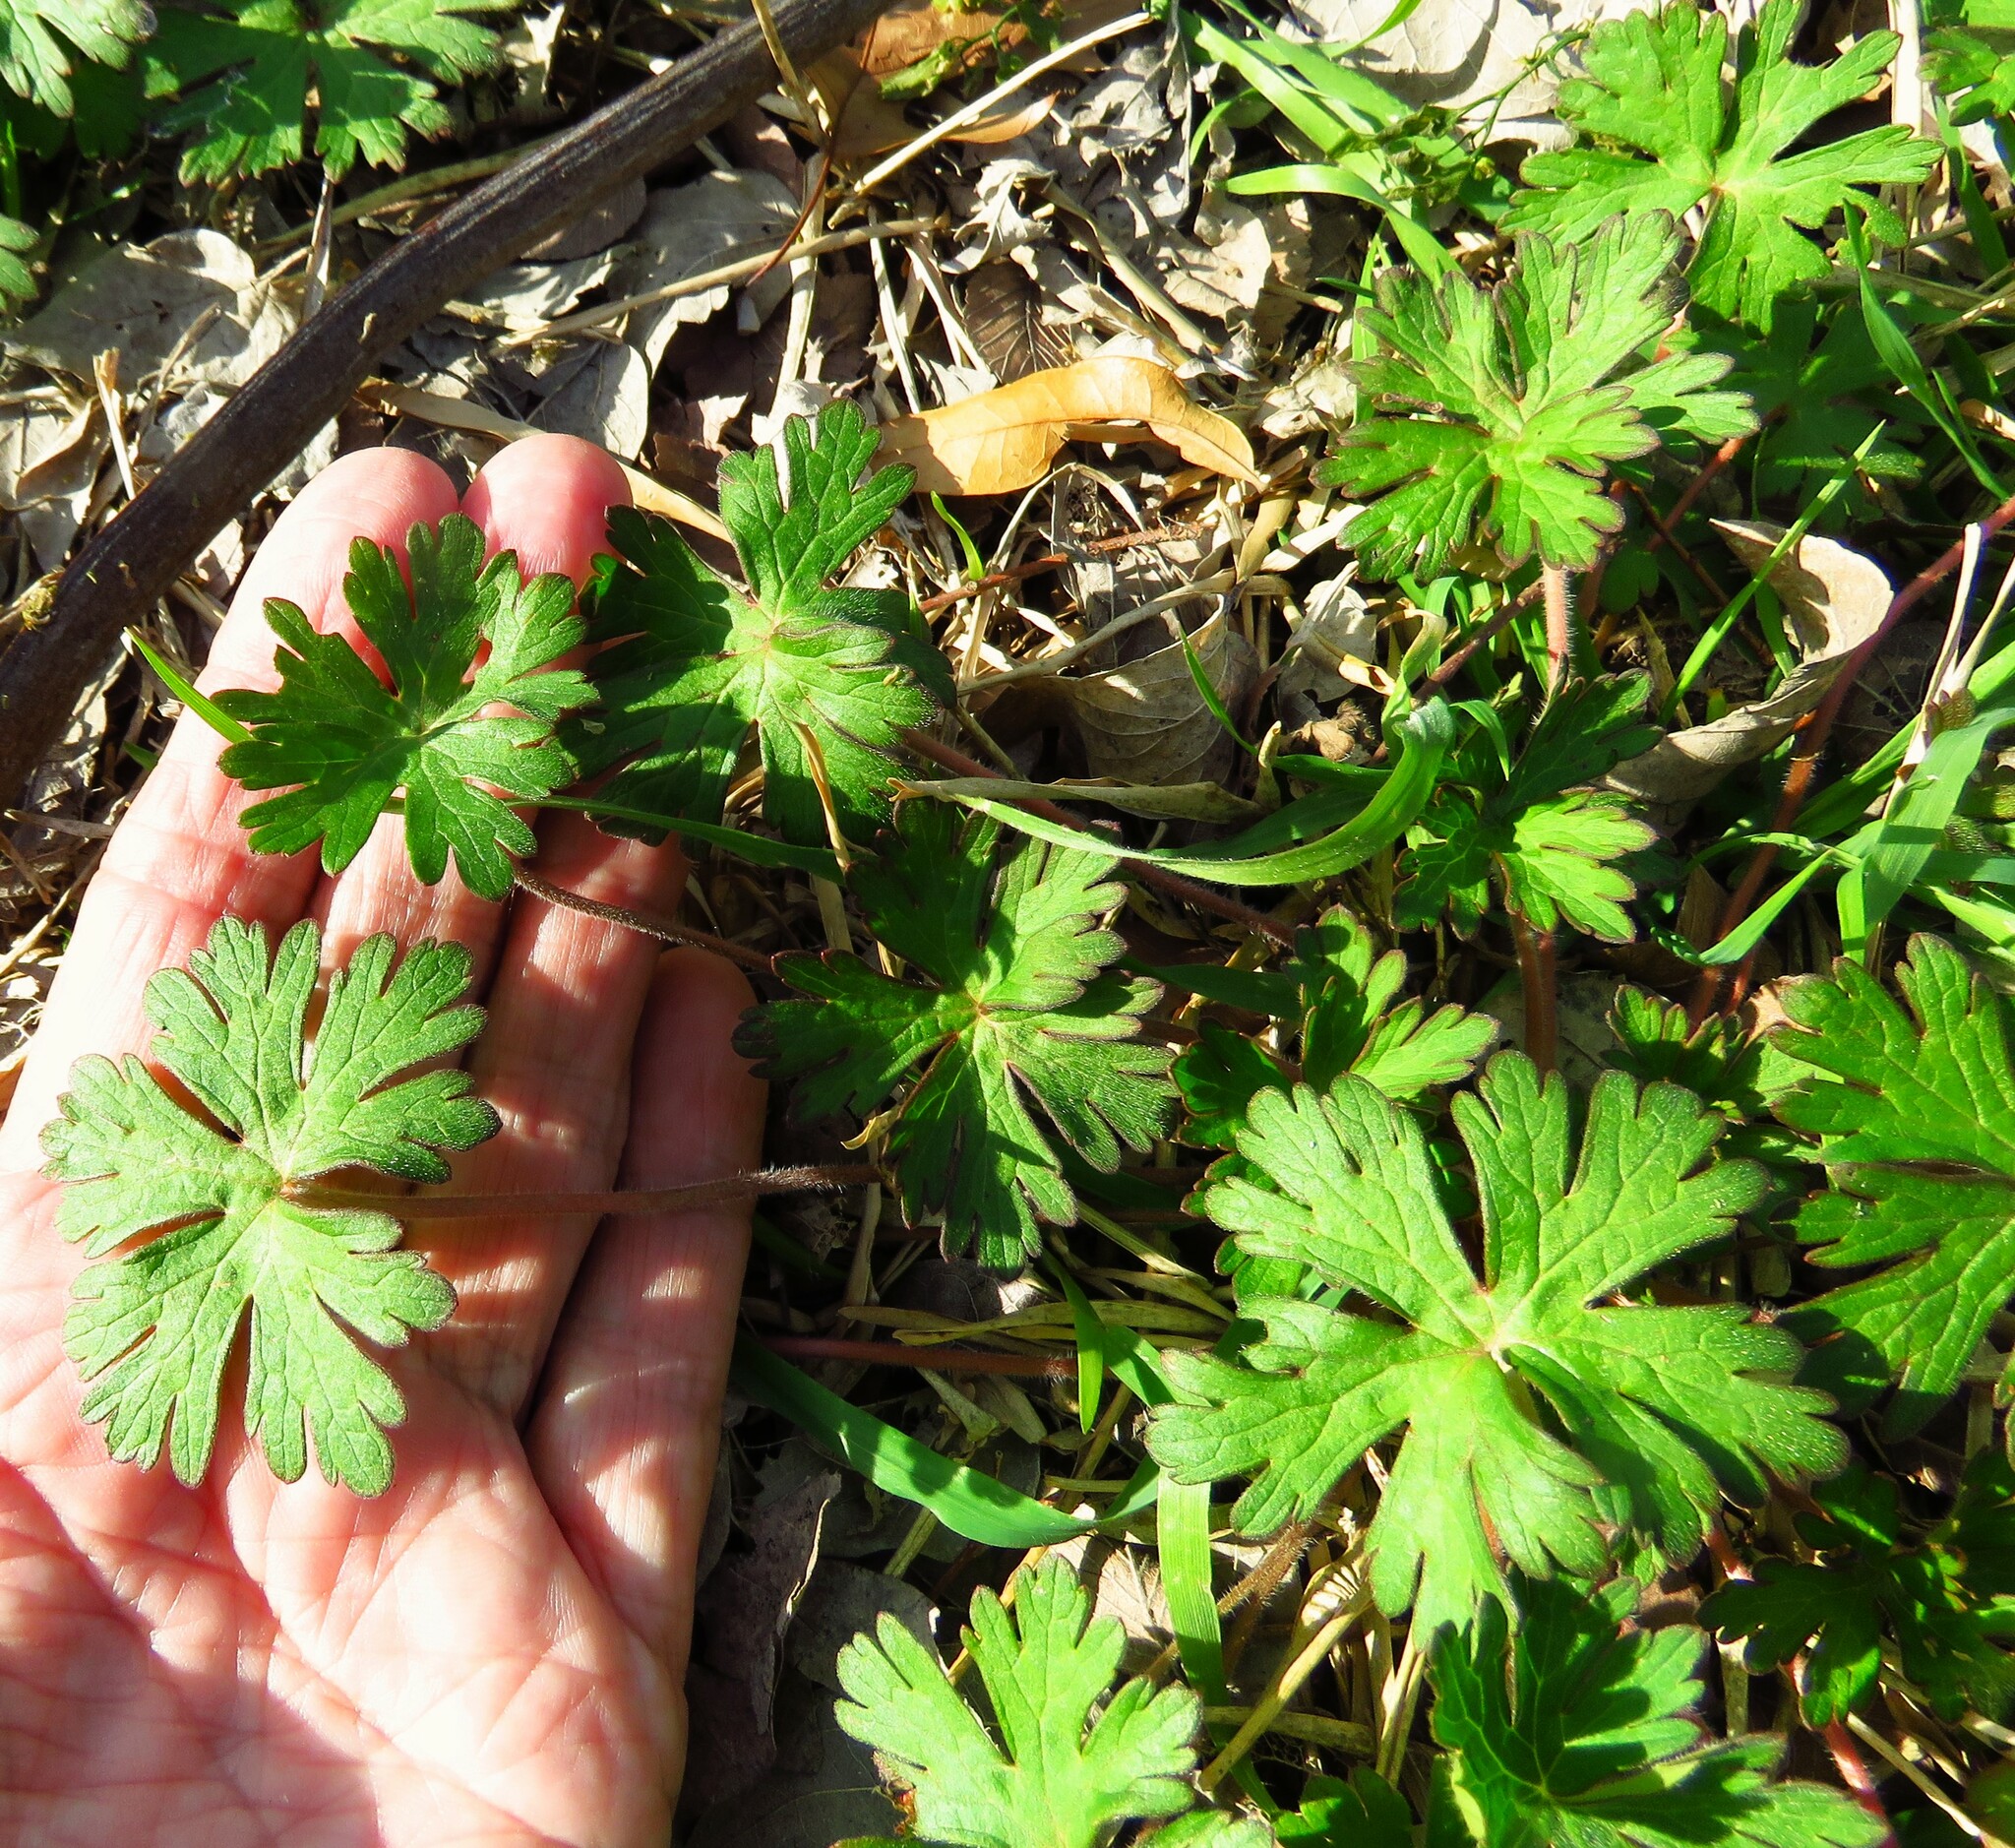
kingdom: Plantae
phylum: Tracheophyta
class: Magnoliopsida
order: Geraniales
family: Geraniaceae
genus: Geranium
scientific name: Geranium carolinianum
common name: Carolina crane's-bill
